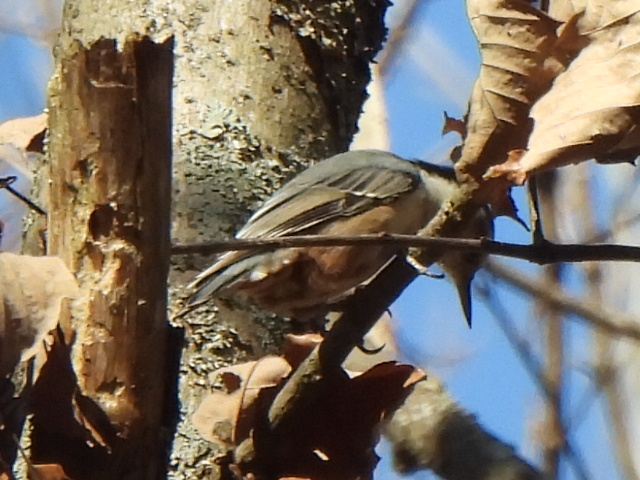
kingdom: Animalia
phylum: Chordata
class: Aves
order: Passeriformes
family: Sittidae
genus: Sitta
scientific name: Sitta carolinensis
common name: White-breasted nuthatch
